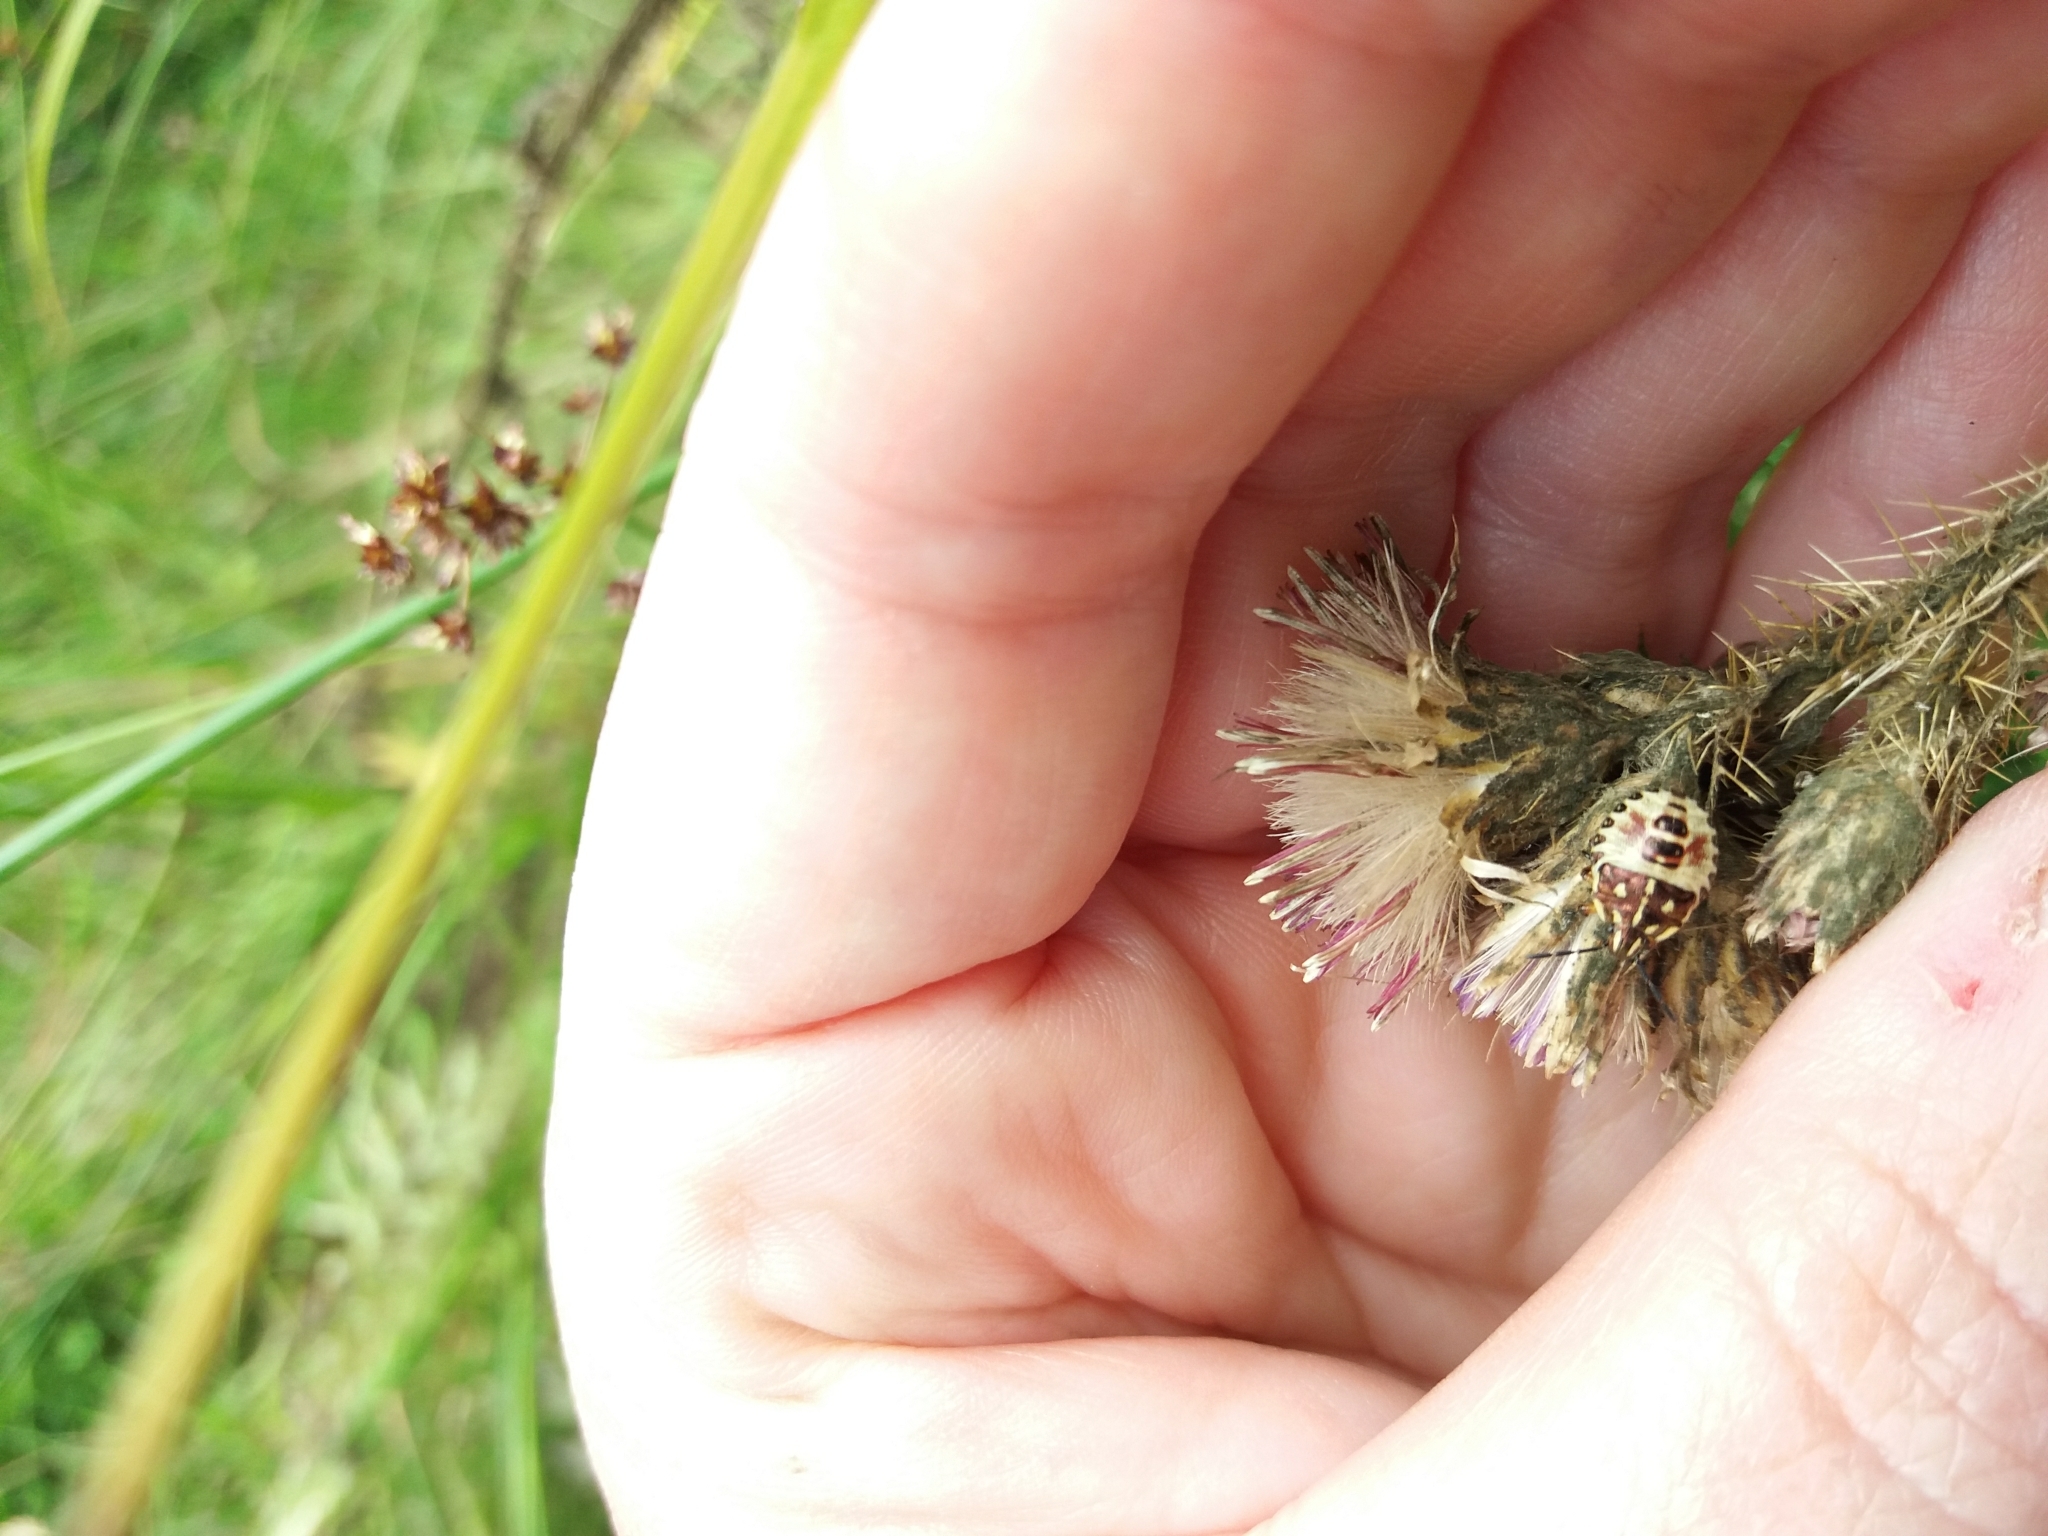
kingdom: Animalia
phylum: Arthropoda
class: Insecta
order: Hemiptera
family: Pentatomidae
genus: Carpocoris
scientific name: Carpocoris purpureipennis
